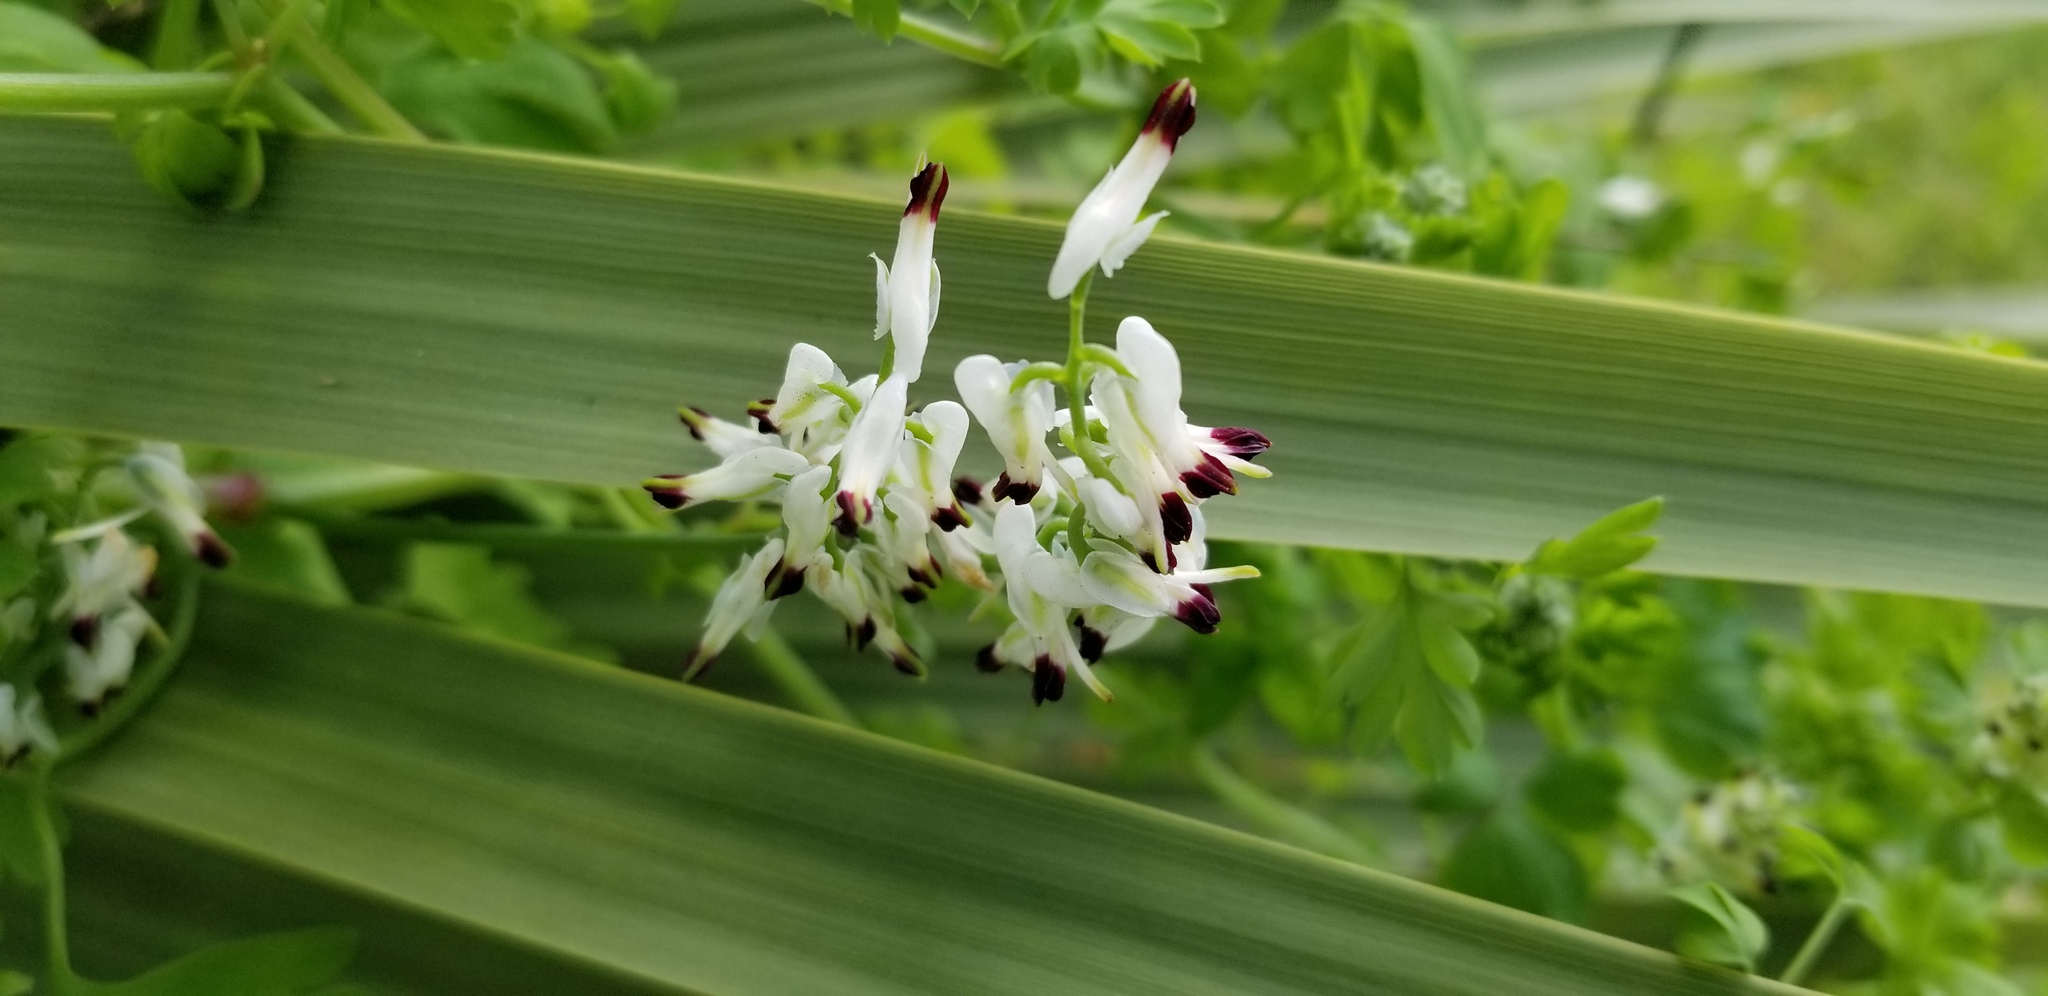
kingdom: Plantae
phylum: Tracheophyta
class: Magnoliopsida
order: Ranunculales
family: Papaveraceae
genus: Fumaria
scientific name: Fumaria capreolata
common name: White ramping-fumitory
